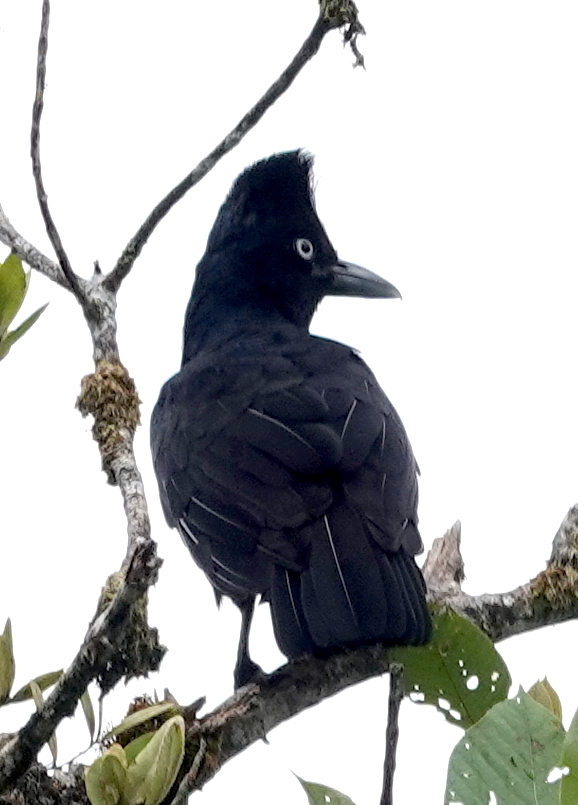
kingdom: Animalia
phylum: Chordata
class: Aves
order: Passeriformes
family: Cotingidae
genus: Cephalopterus
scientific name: Cephalopterus ornatus
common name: Amazonian umbrellabird
